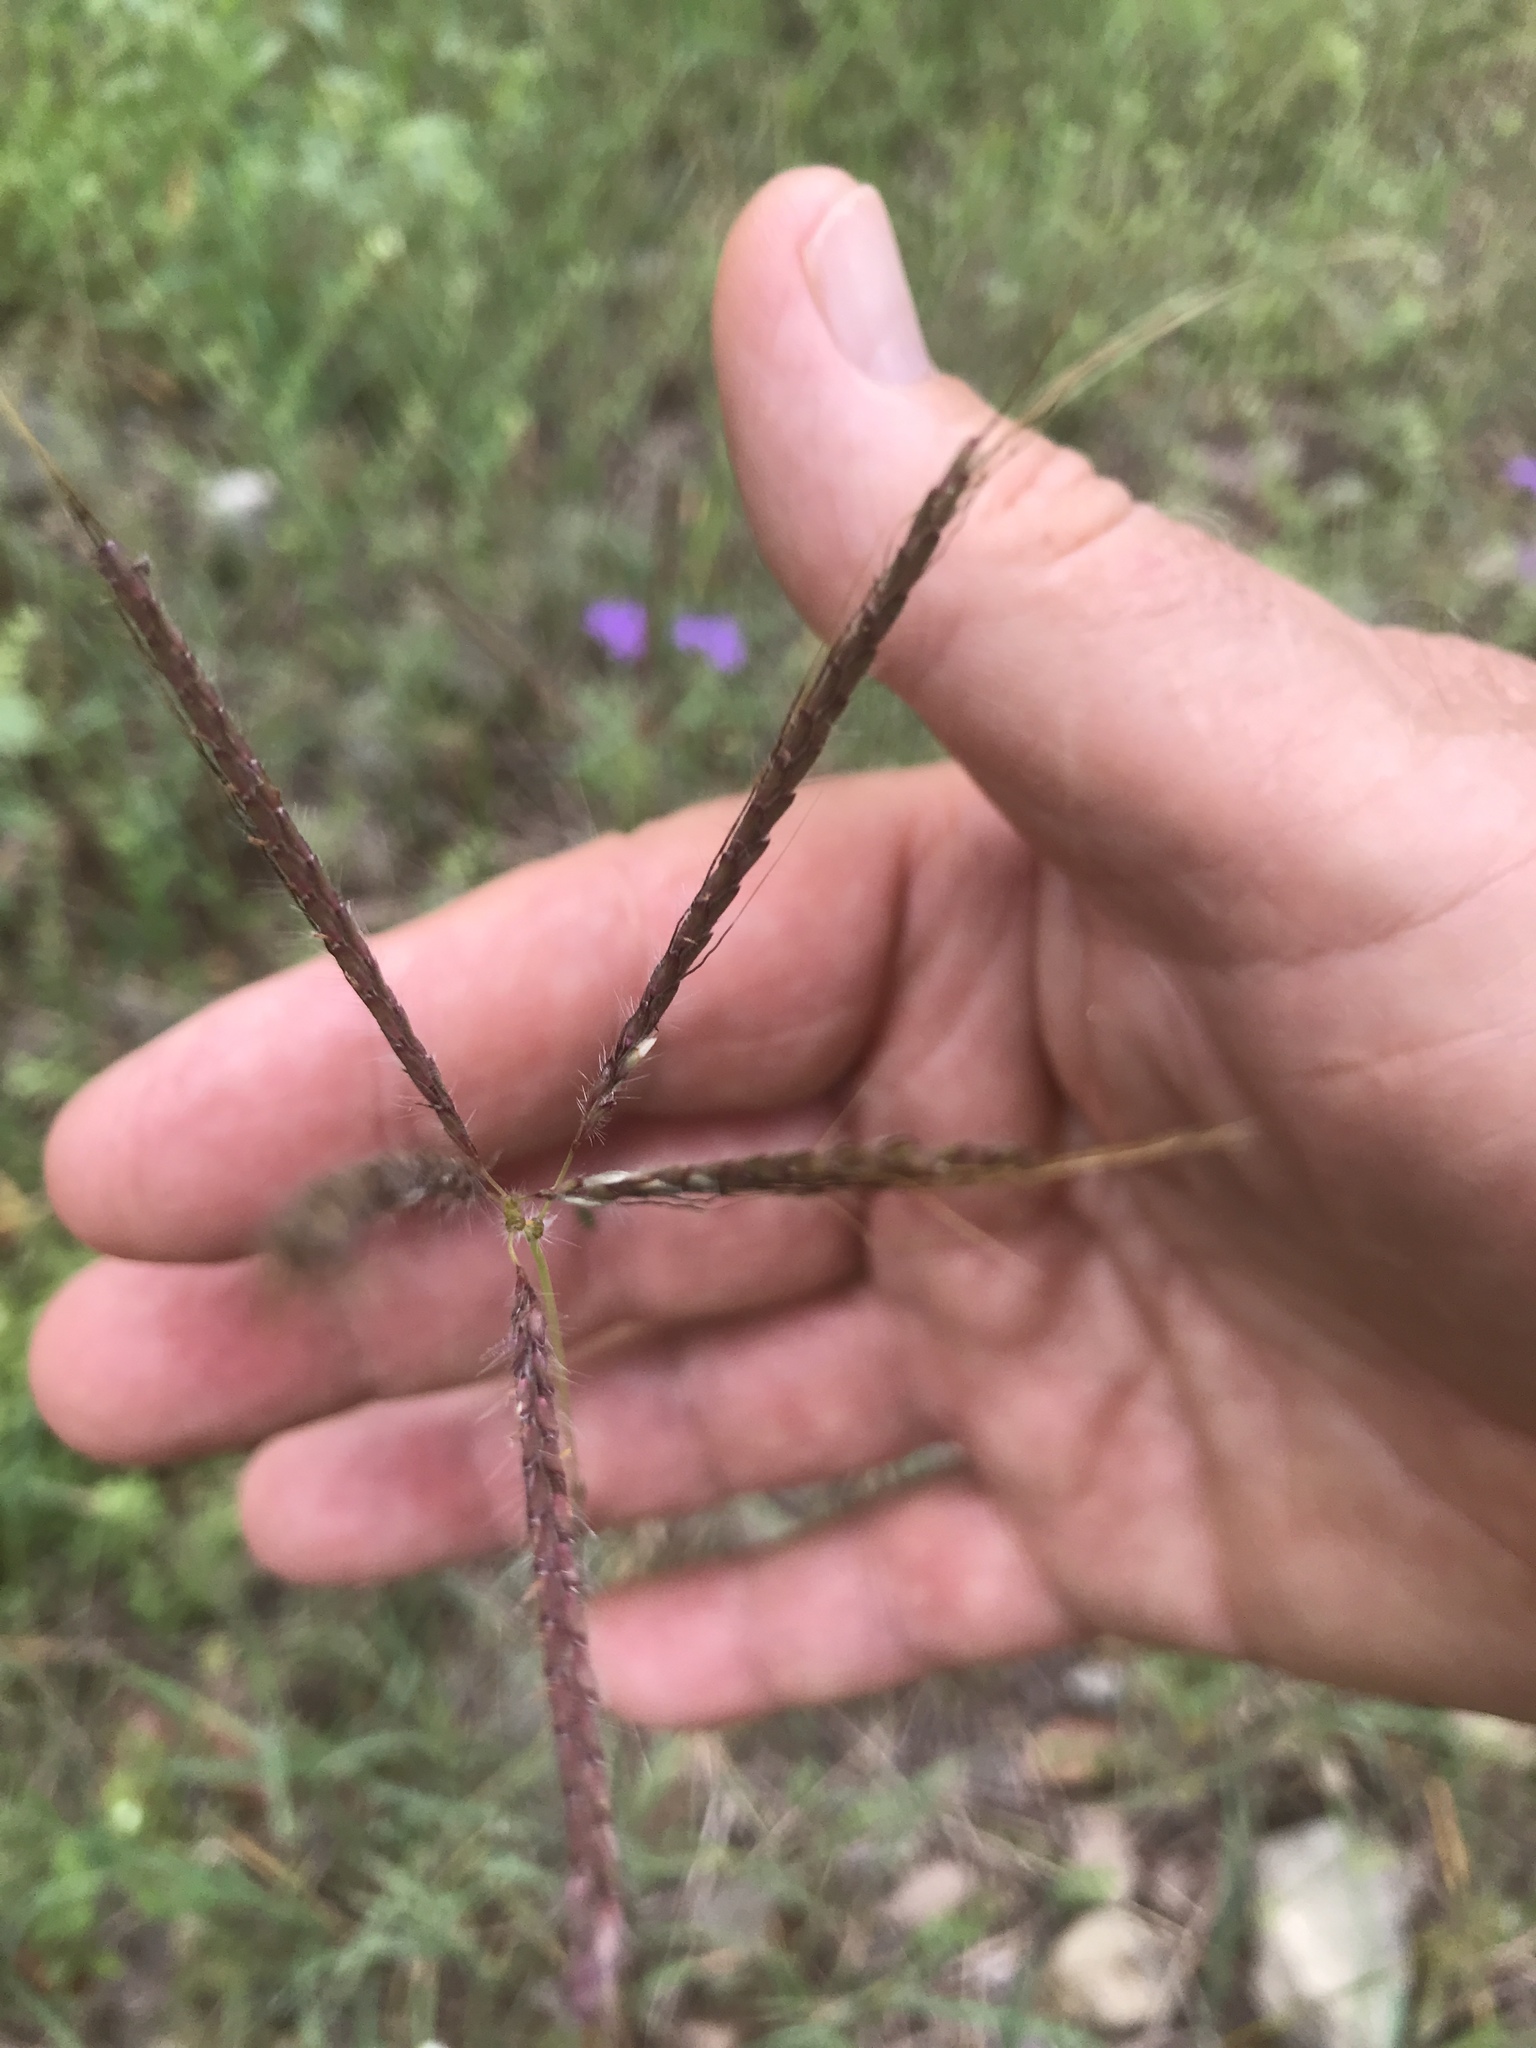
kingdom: Plantae
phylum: Tracheophyta
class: Liliopsida
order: Poales
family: Poaceae
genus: Dichanthium
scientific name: Dichanthium annulatum
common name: Kleberg's bluestem
